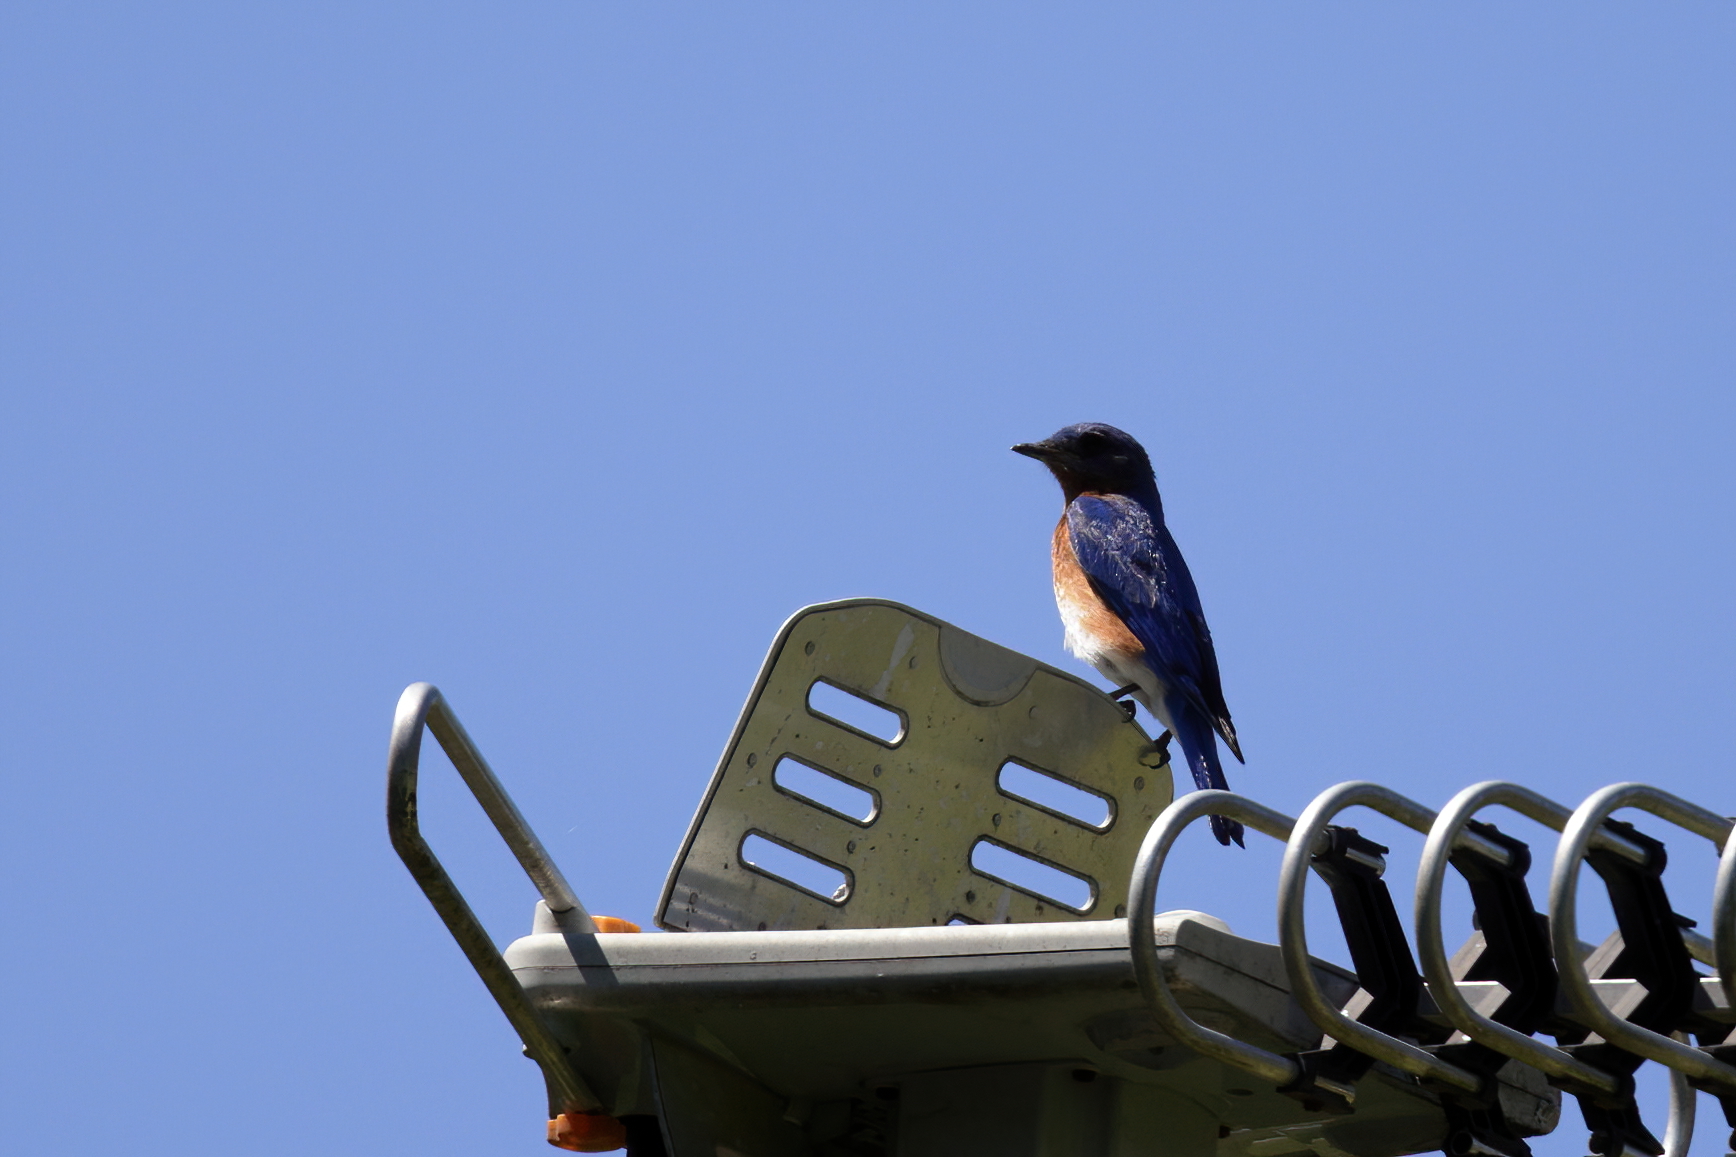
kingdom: Animalia
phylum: Chordata
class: Aves
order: Passeriformes
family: Turdidae
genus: Sialia
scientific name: Sialia sialis
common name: Eastern bluebird
